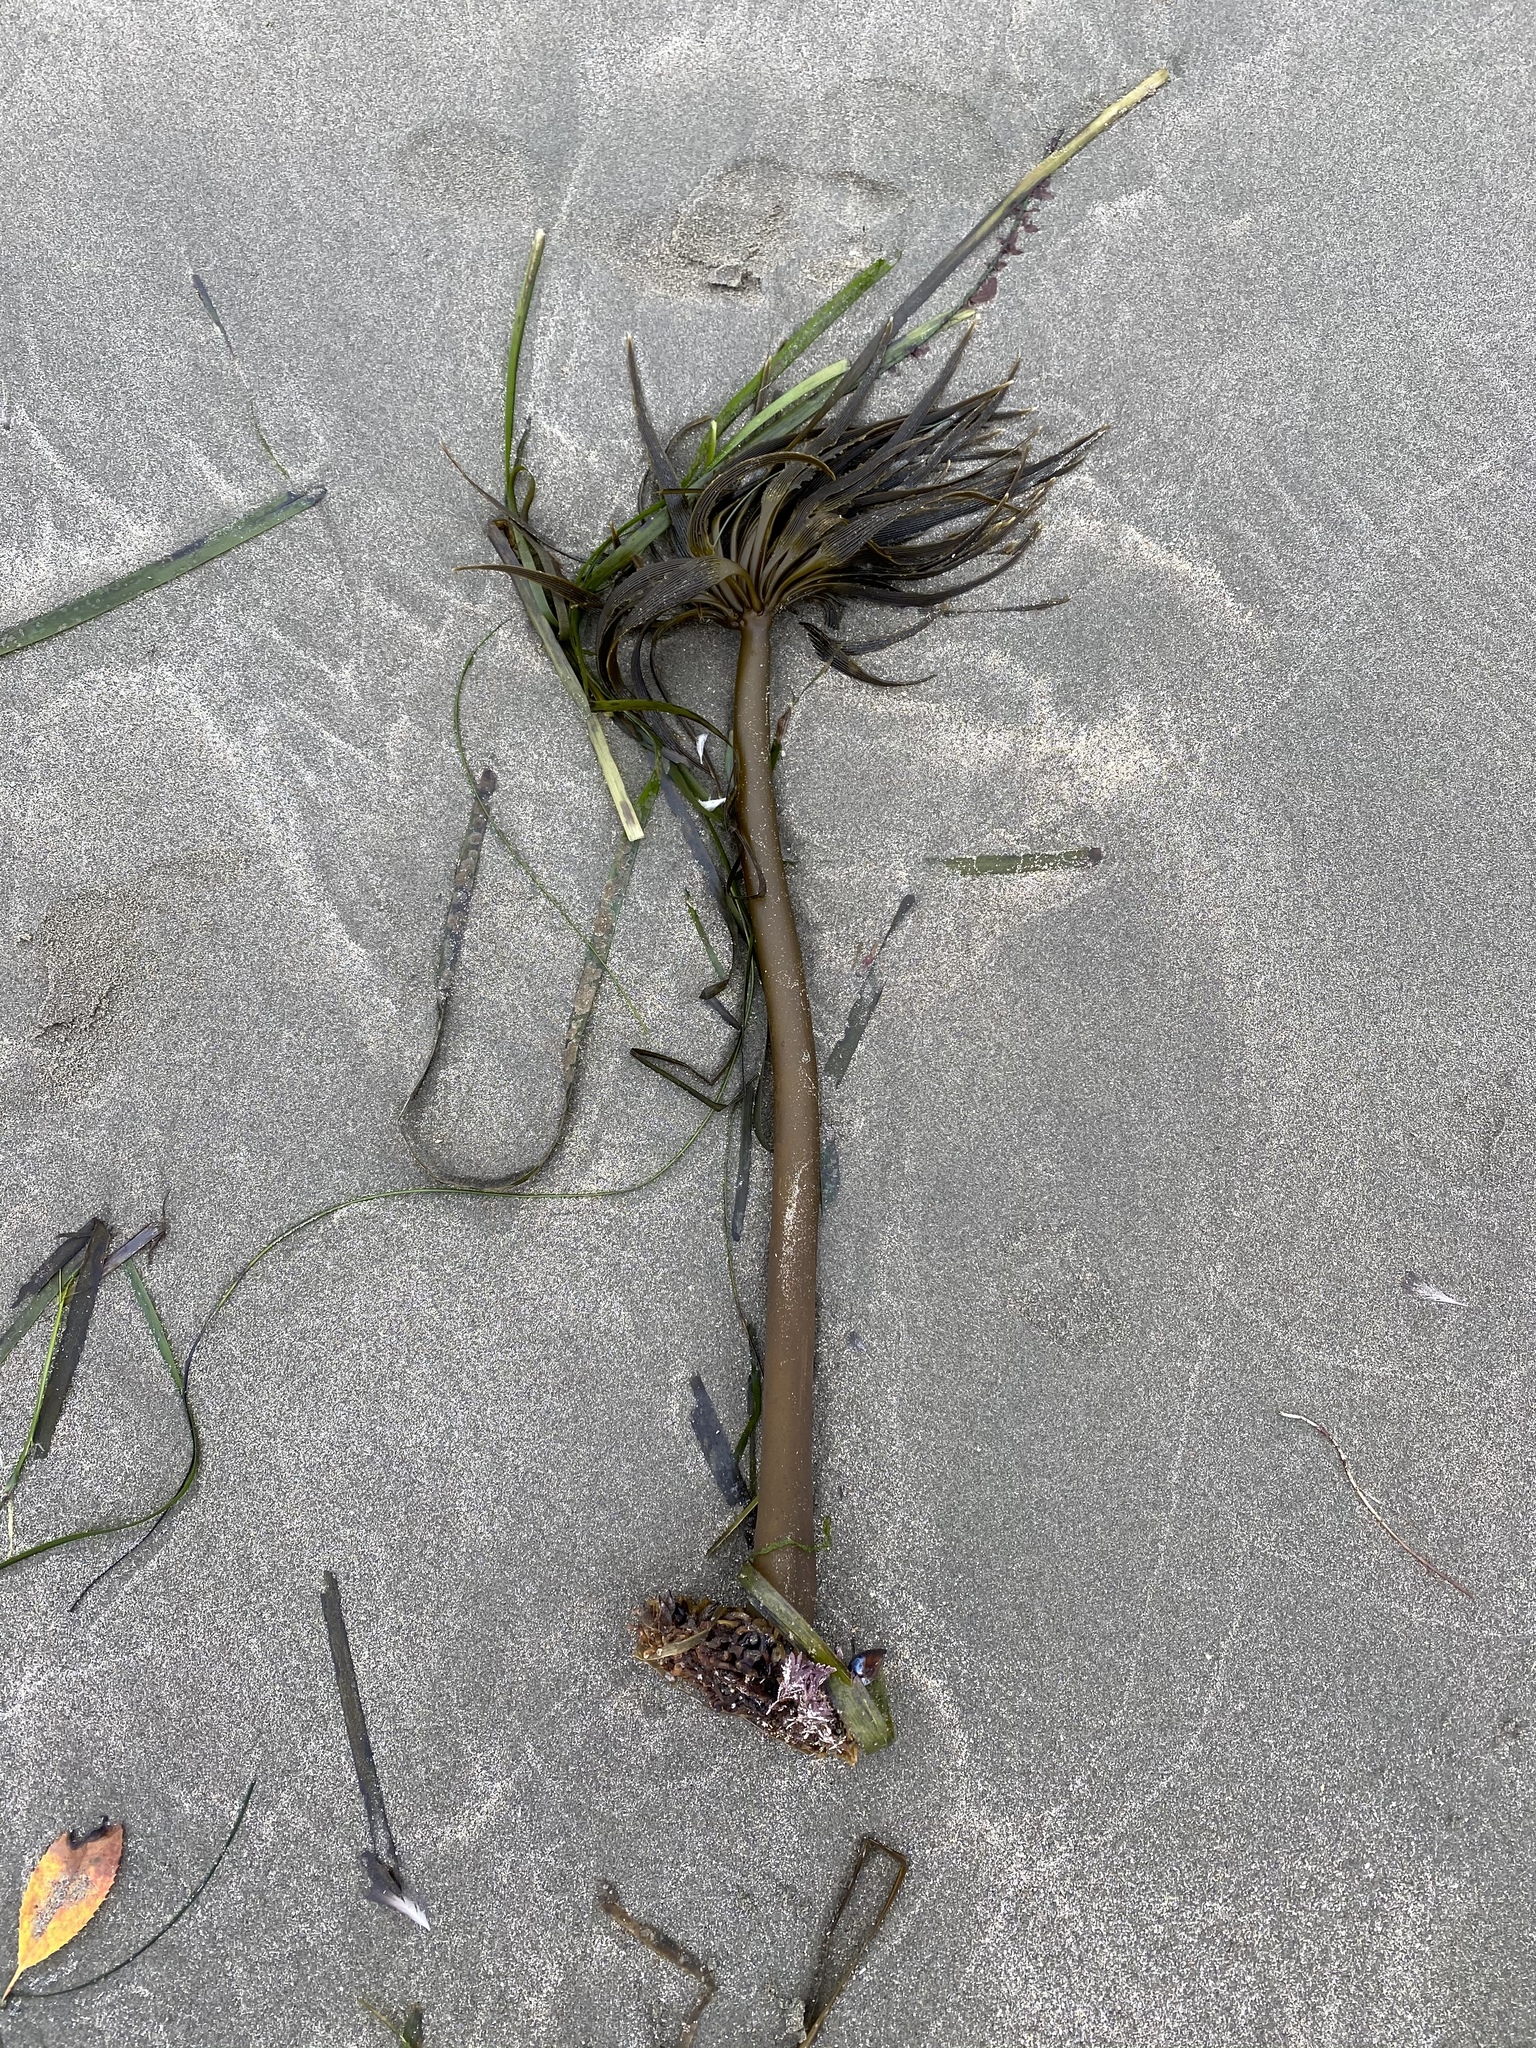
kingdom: Chromista
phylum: Ochrophyta
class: Phaeophyceae
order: Laminariales
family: Laminariaceae
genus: Postelsia
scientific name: Postelsia palmiformis
